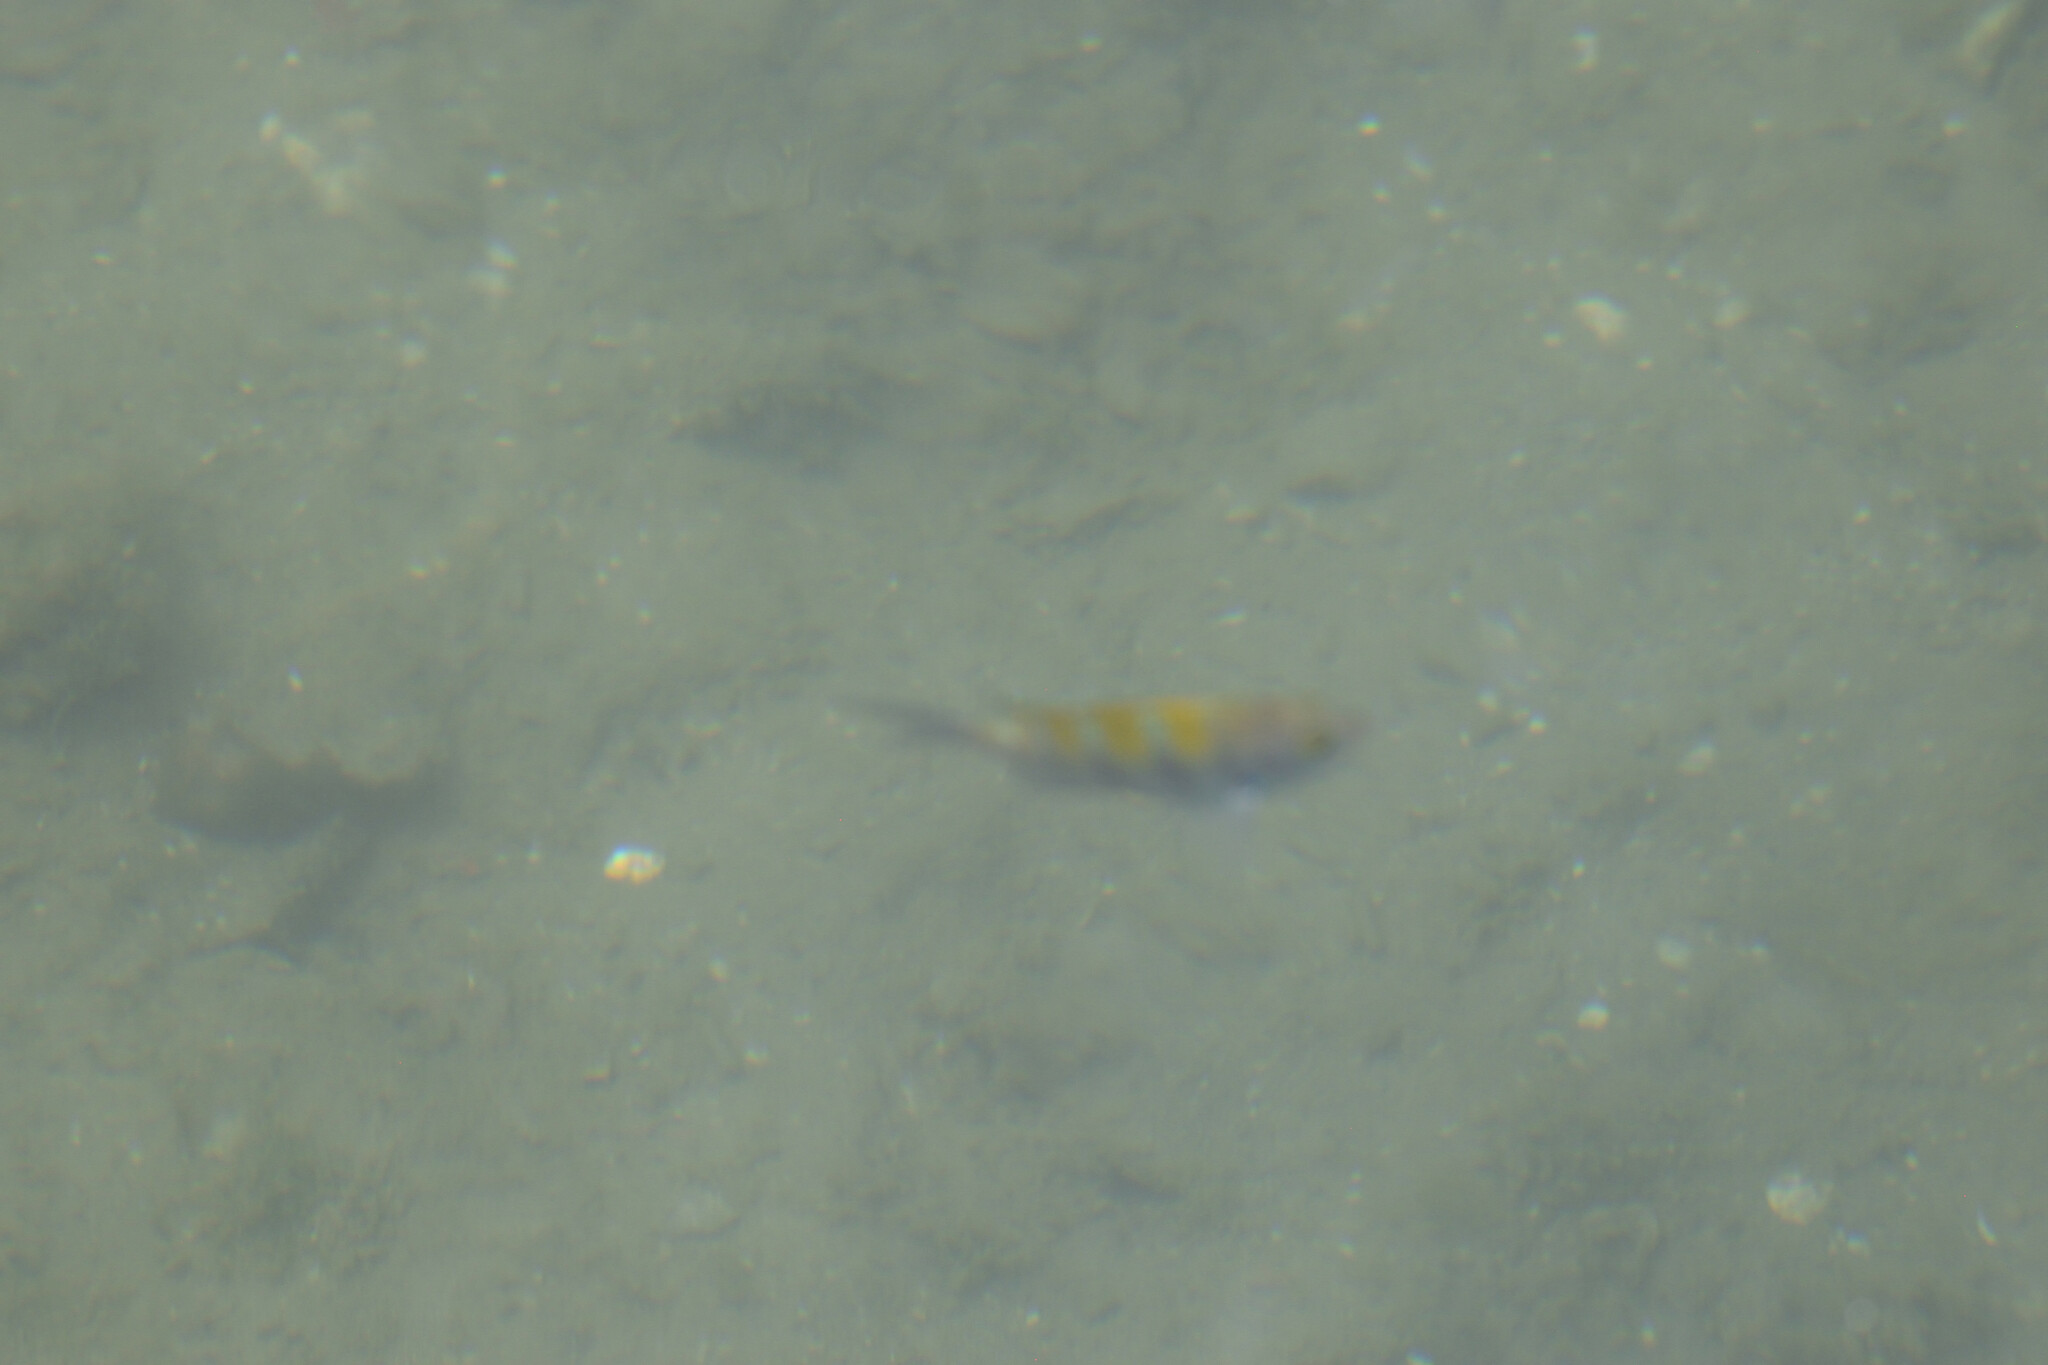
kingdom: Animalia
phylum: Chordata
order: Perciformes
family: Pomacentridae
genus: Abudefduf
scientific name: Abudefduf troschelii
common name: Panamic sergeant major
